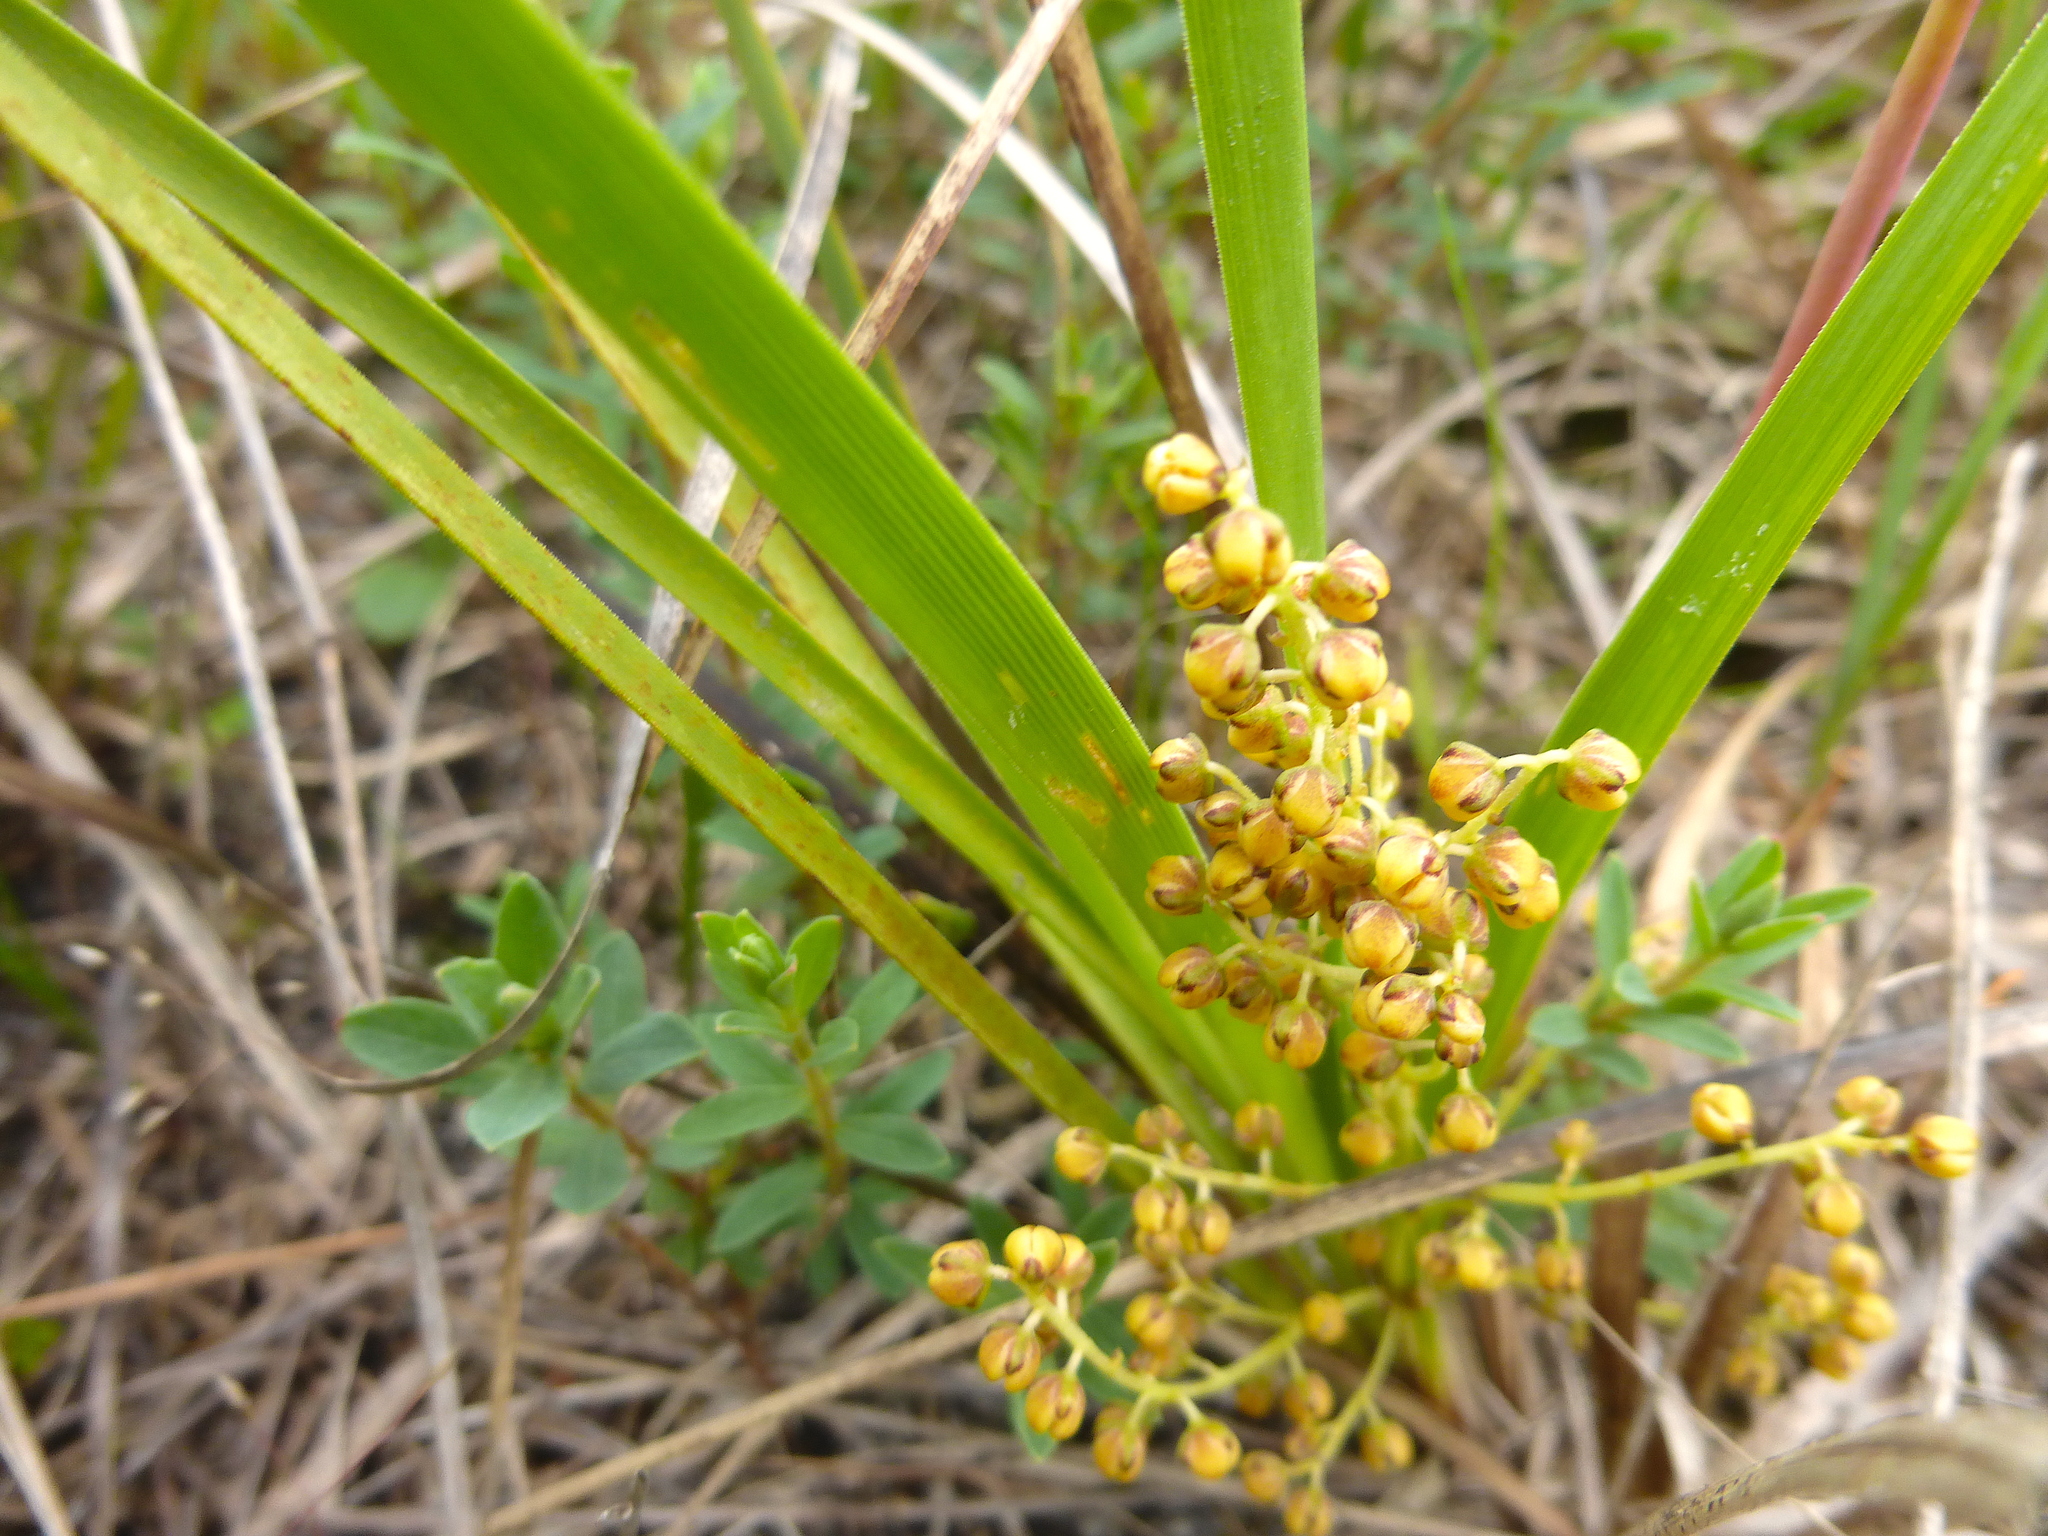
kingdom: Plantae
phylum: Tracheophyta
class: Liliopsida
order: Asparagales
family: Asparagaceae
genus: Lomandra
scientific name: Lomandra filiformis
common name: Wattle mat-rush
